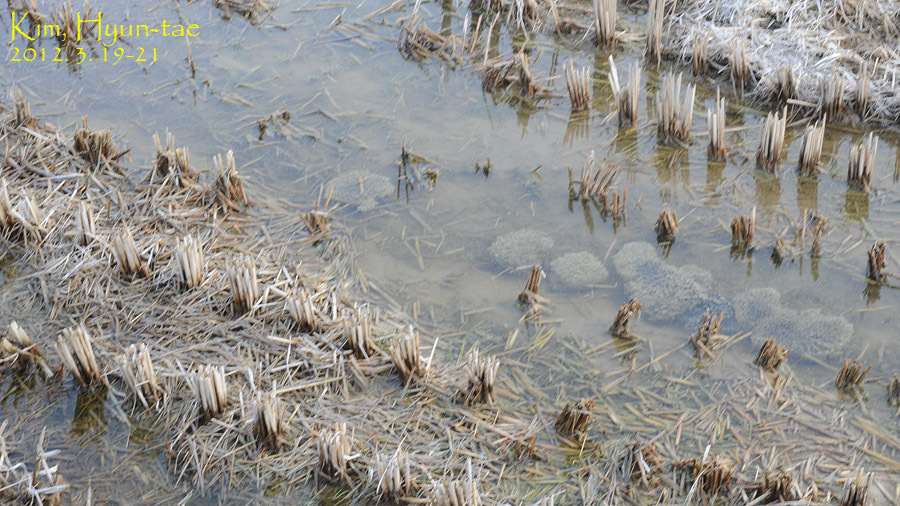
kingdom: Animalia
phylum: Chordata
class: Amphibia
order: Anura
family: Ranidae
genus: Rana
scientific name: Rana uenoi
